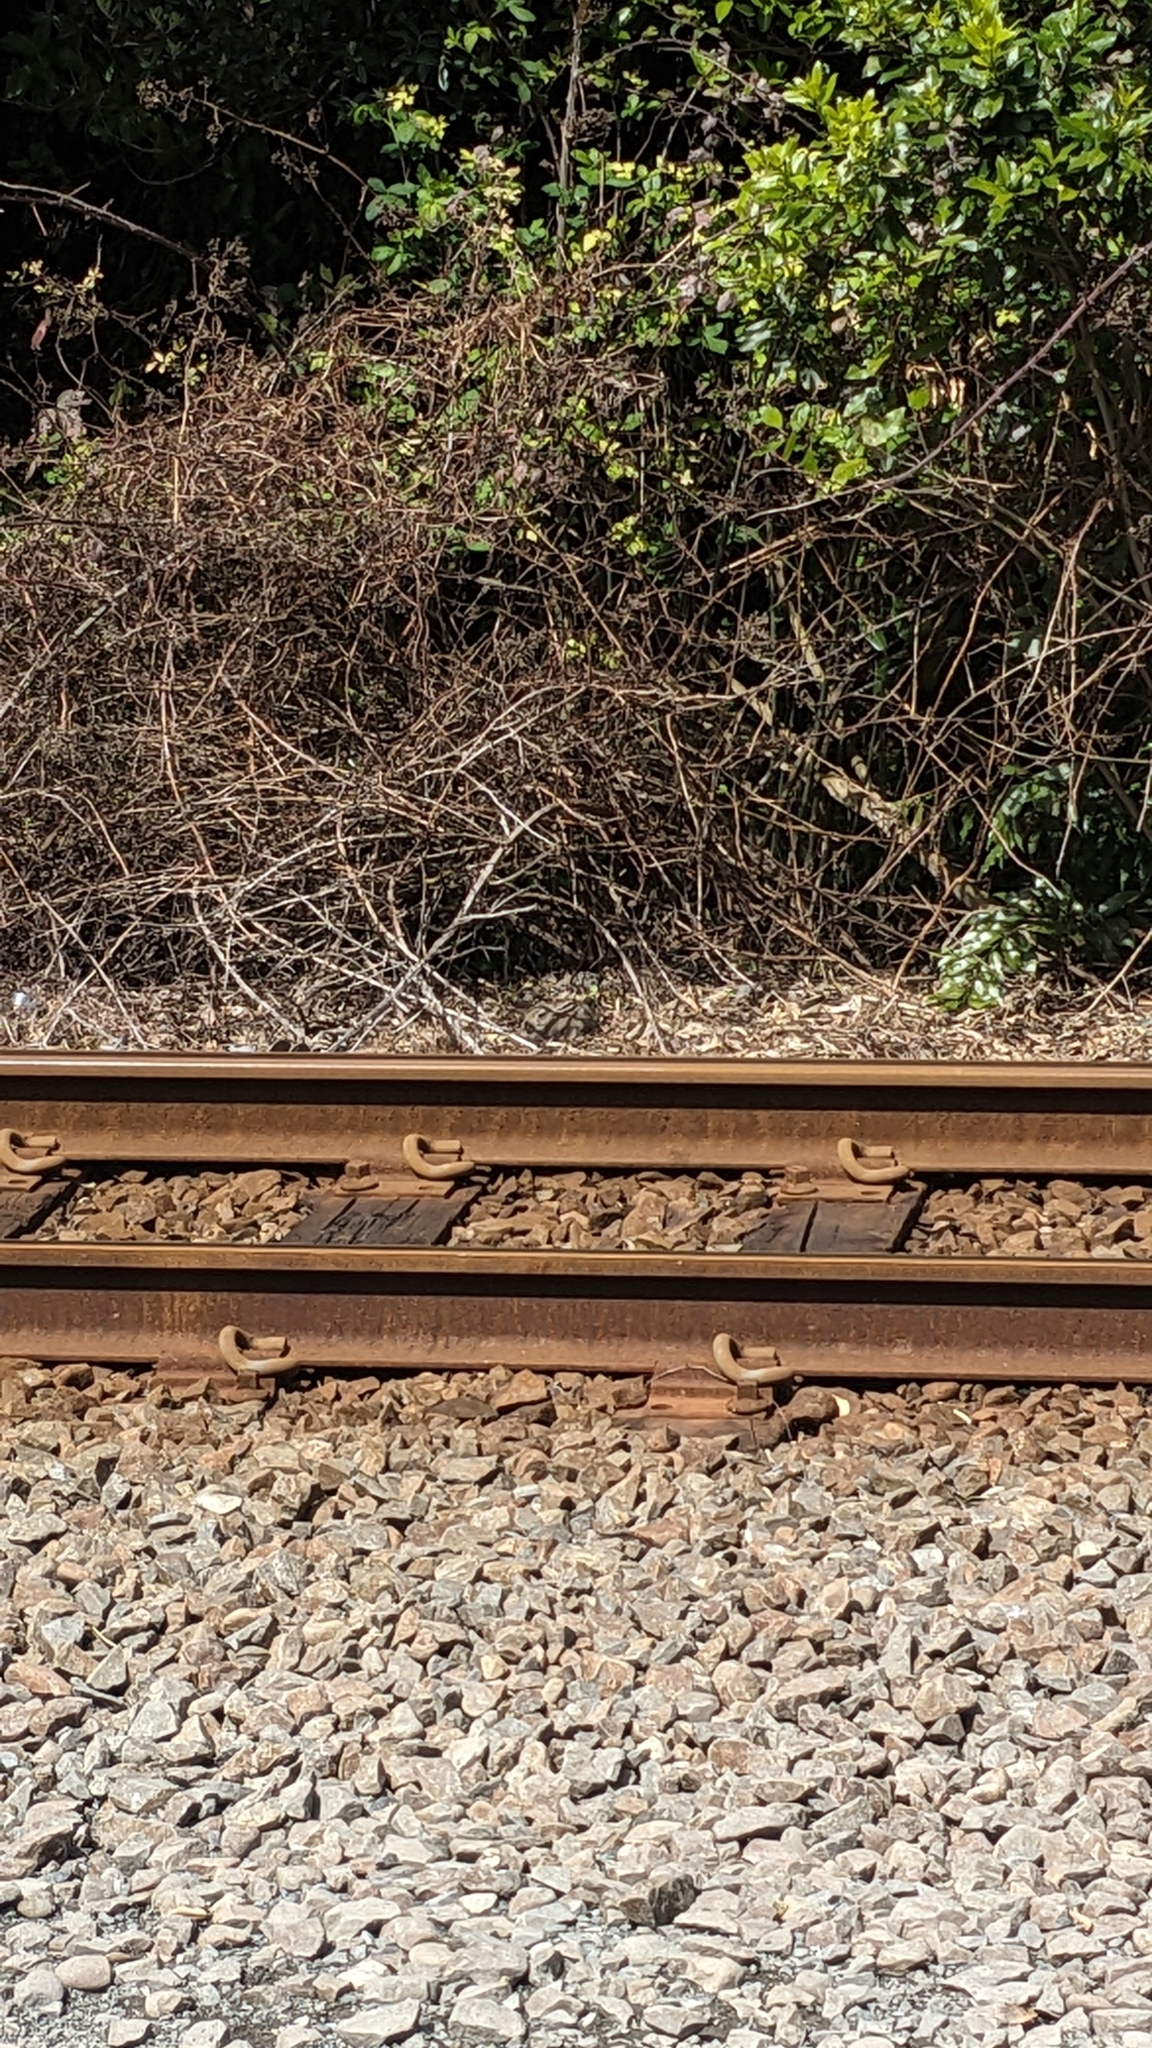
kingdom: Animalia
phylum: Chordata
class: Mammalia
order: Lagomorpha
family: Leporidae
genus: Oryctolagus
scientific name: Oryctolagus cuniculus
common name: European rabbit
